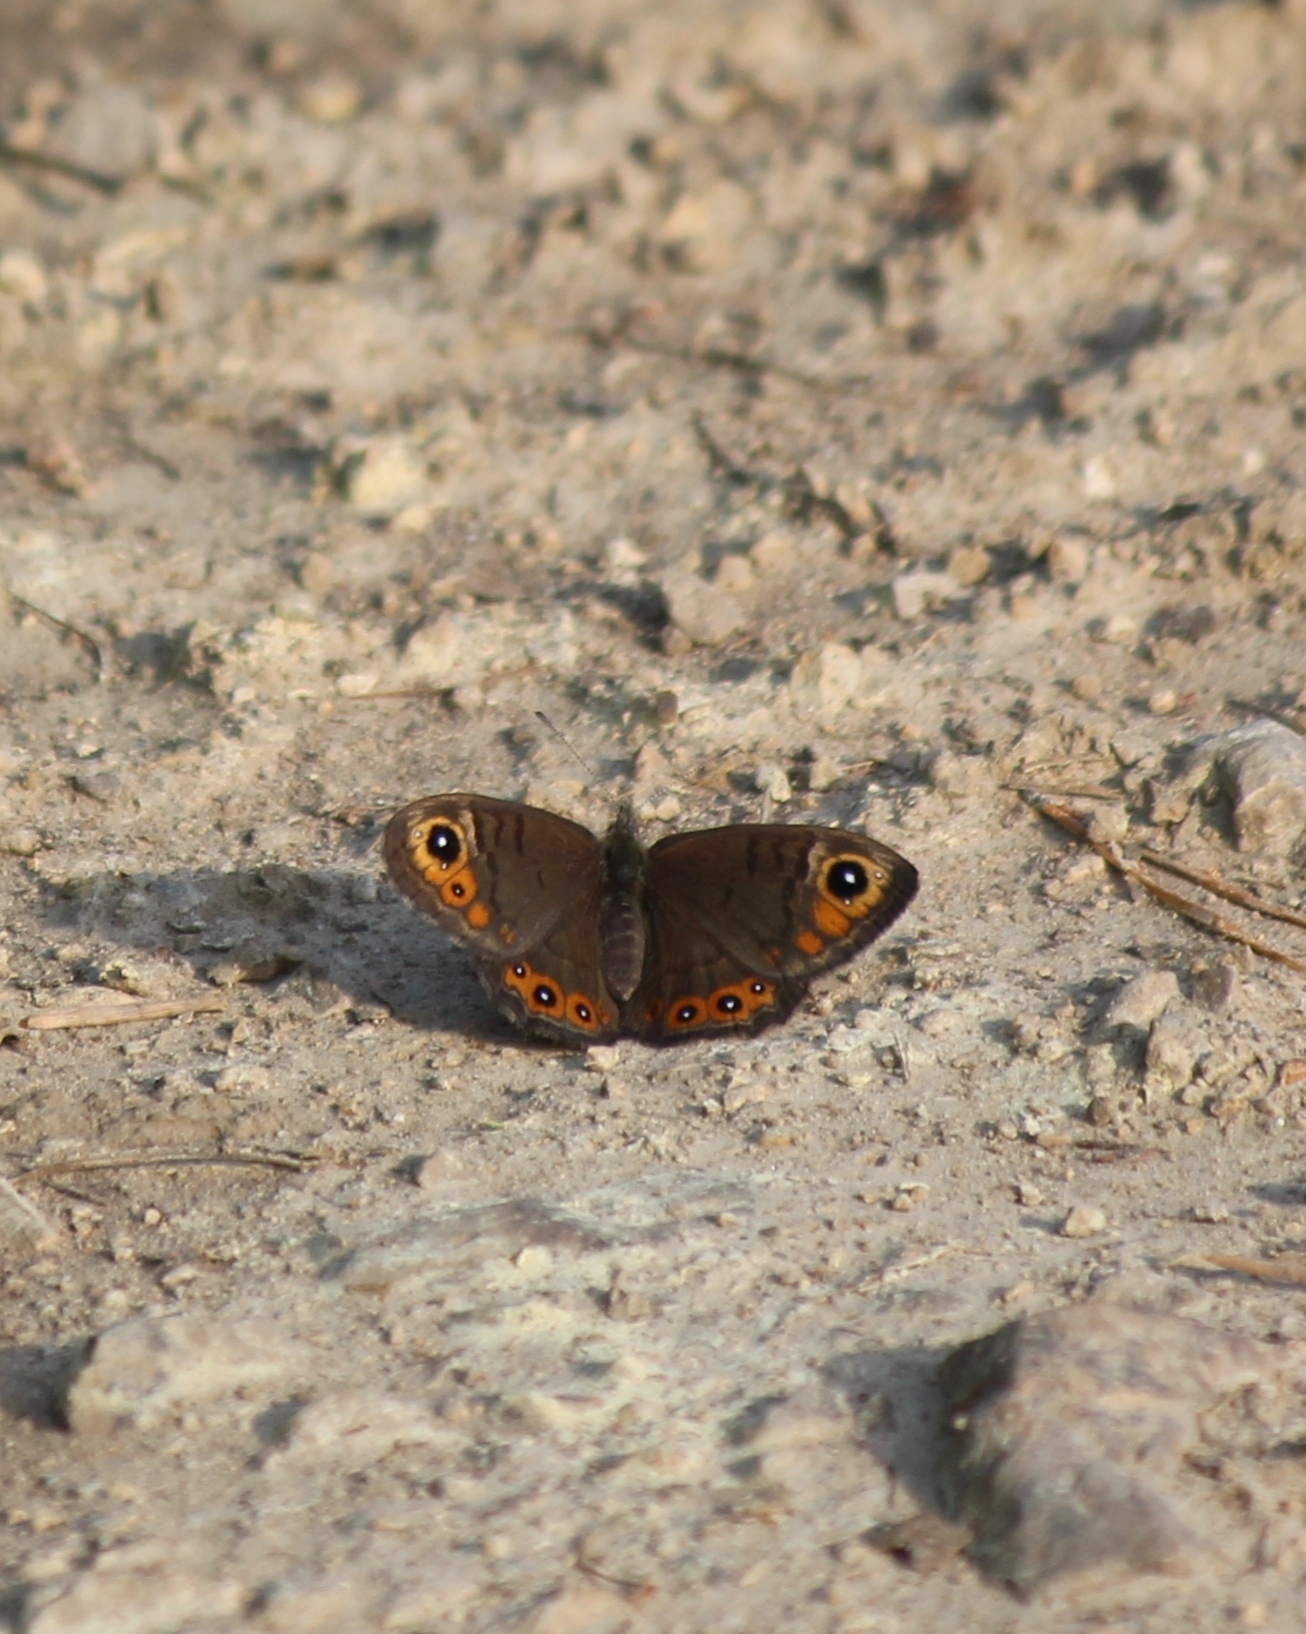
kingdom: Animalia
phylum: Arthropoda
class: Insecta
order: Lepidoptera
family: Nymphalidae
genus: Pararge
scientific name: Pararge petropolitana
